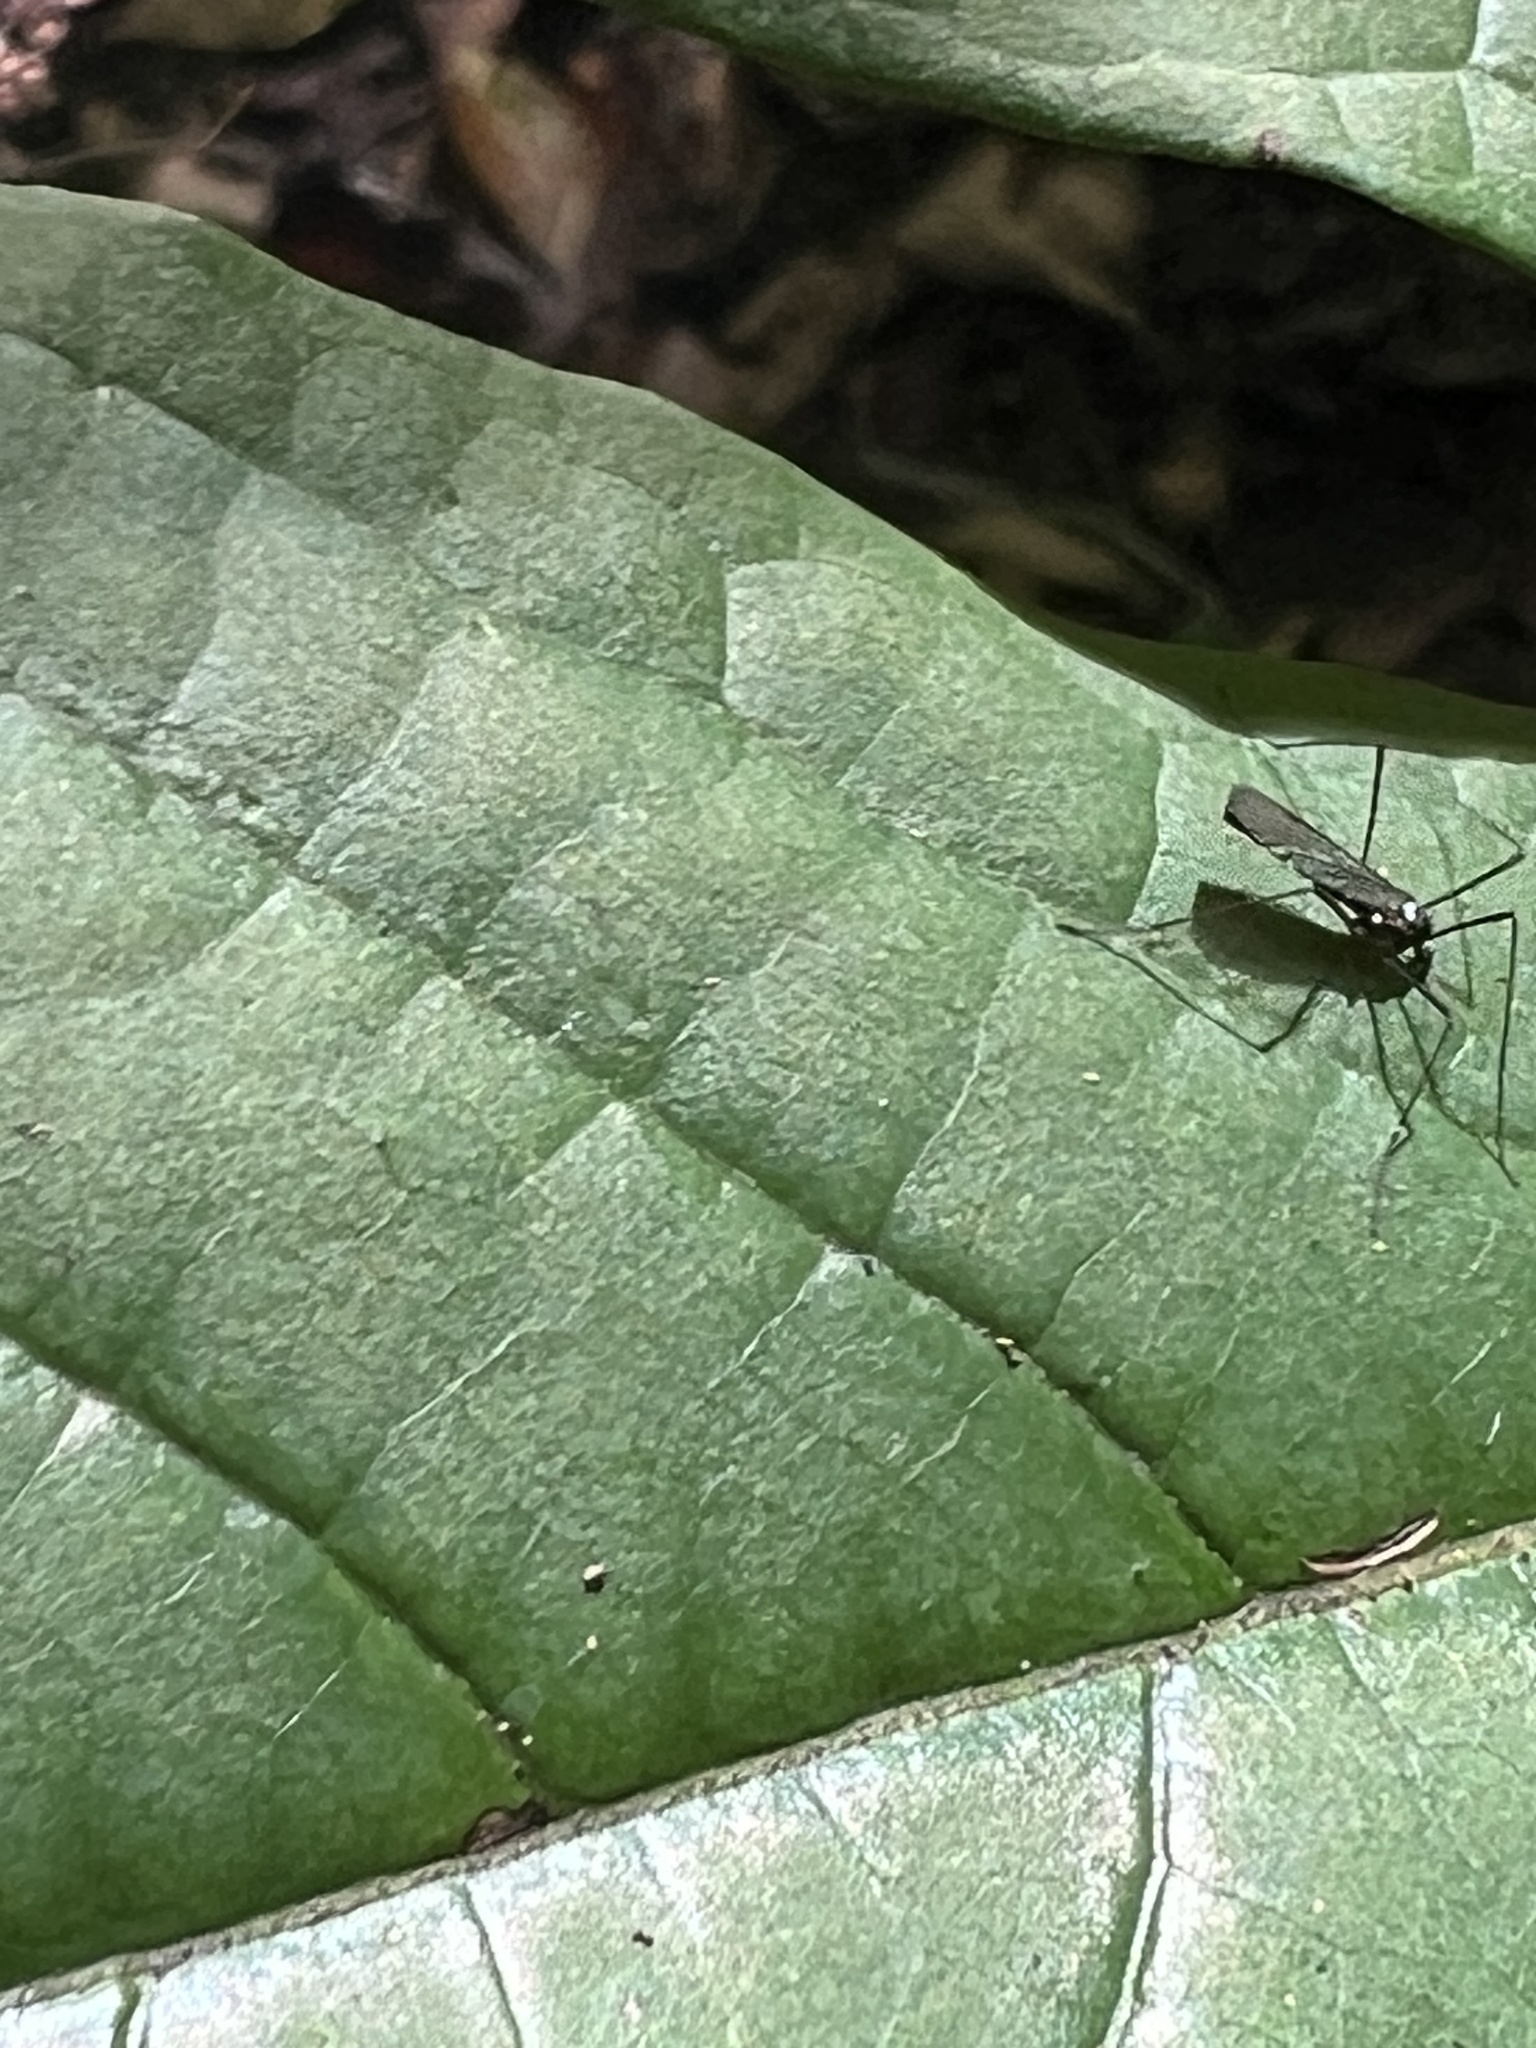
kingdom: Animalia
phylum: Arthropoda
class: Insecta
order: Diptera
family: Limoniidae
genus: Gnophomyia
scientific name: Gnophomyia tristissima
